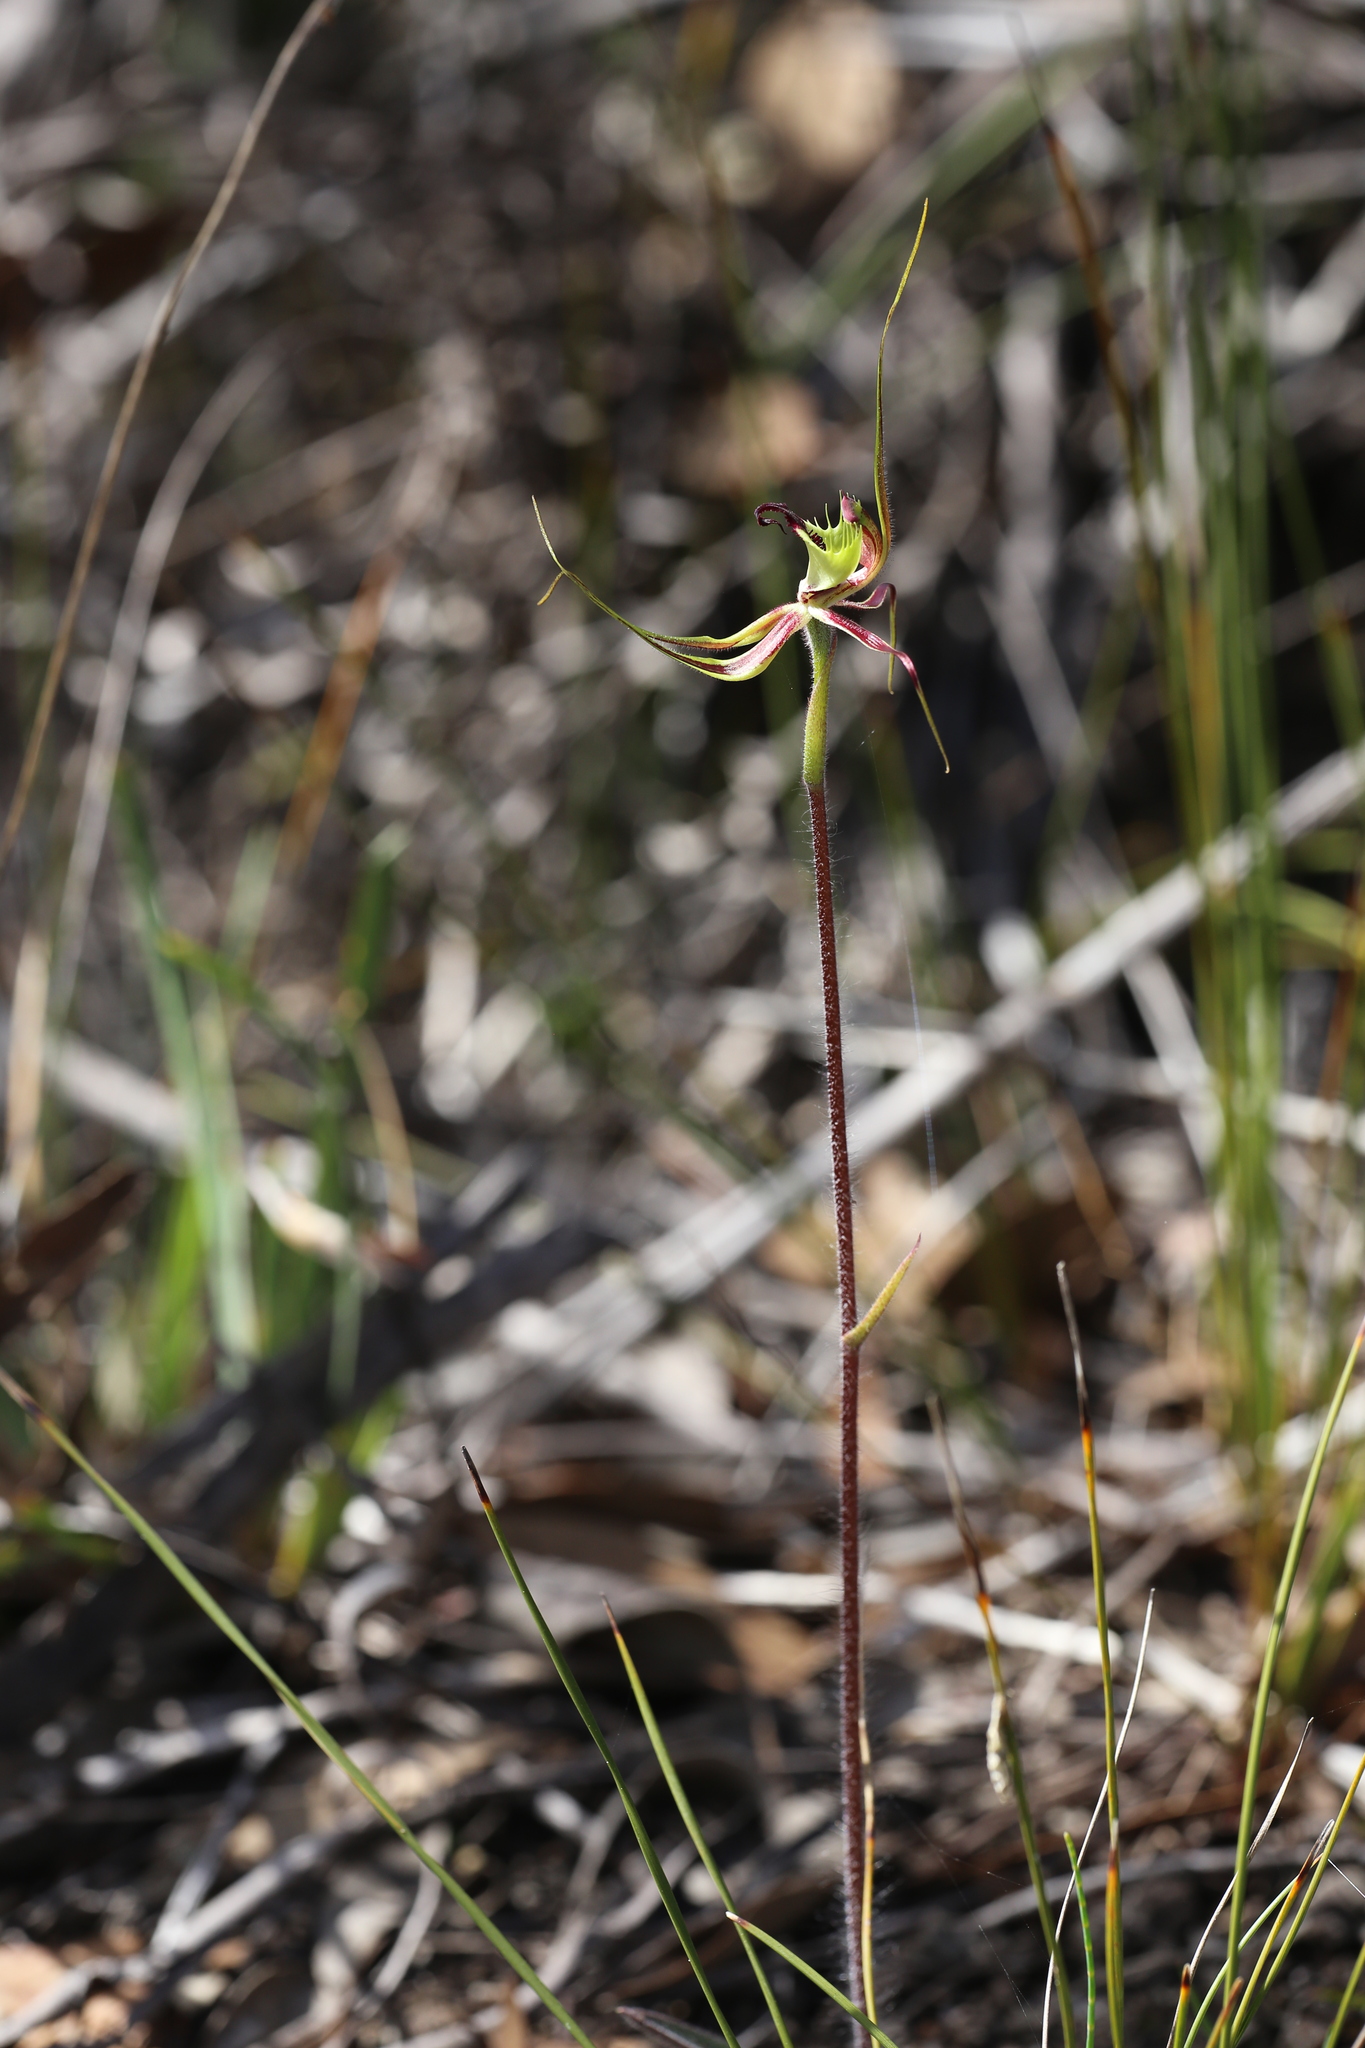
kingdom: Plantae
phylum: Tracheophyta
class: Liliopsida
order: Asparagales
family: Orchidaceae
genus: Caladenia
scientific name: Caladenia attingens
